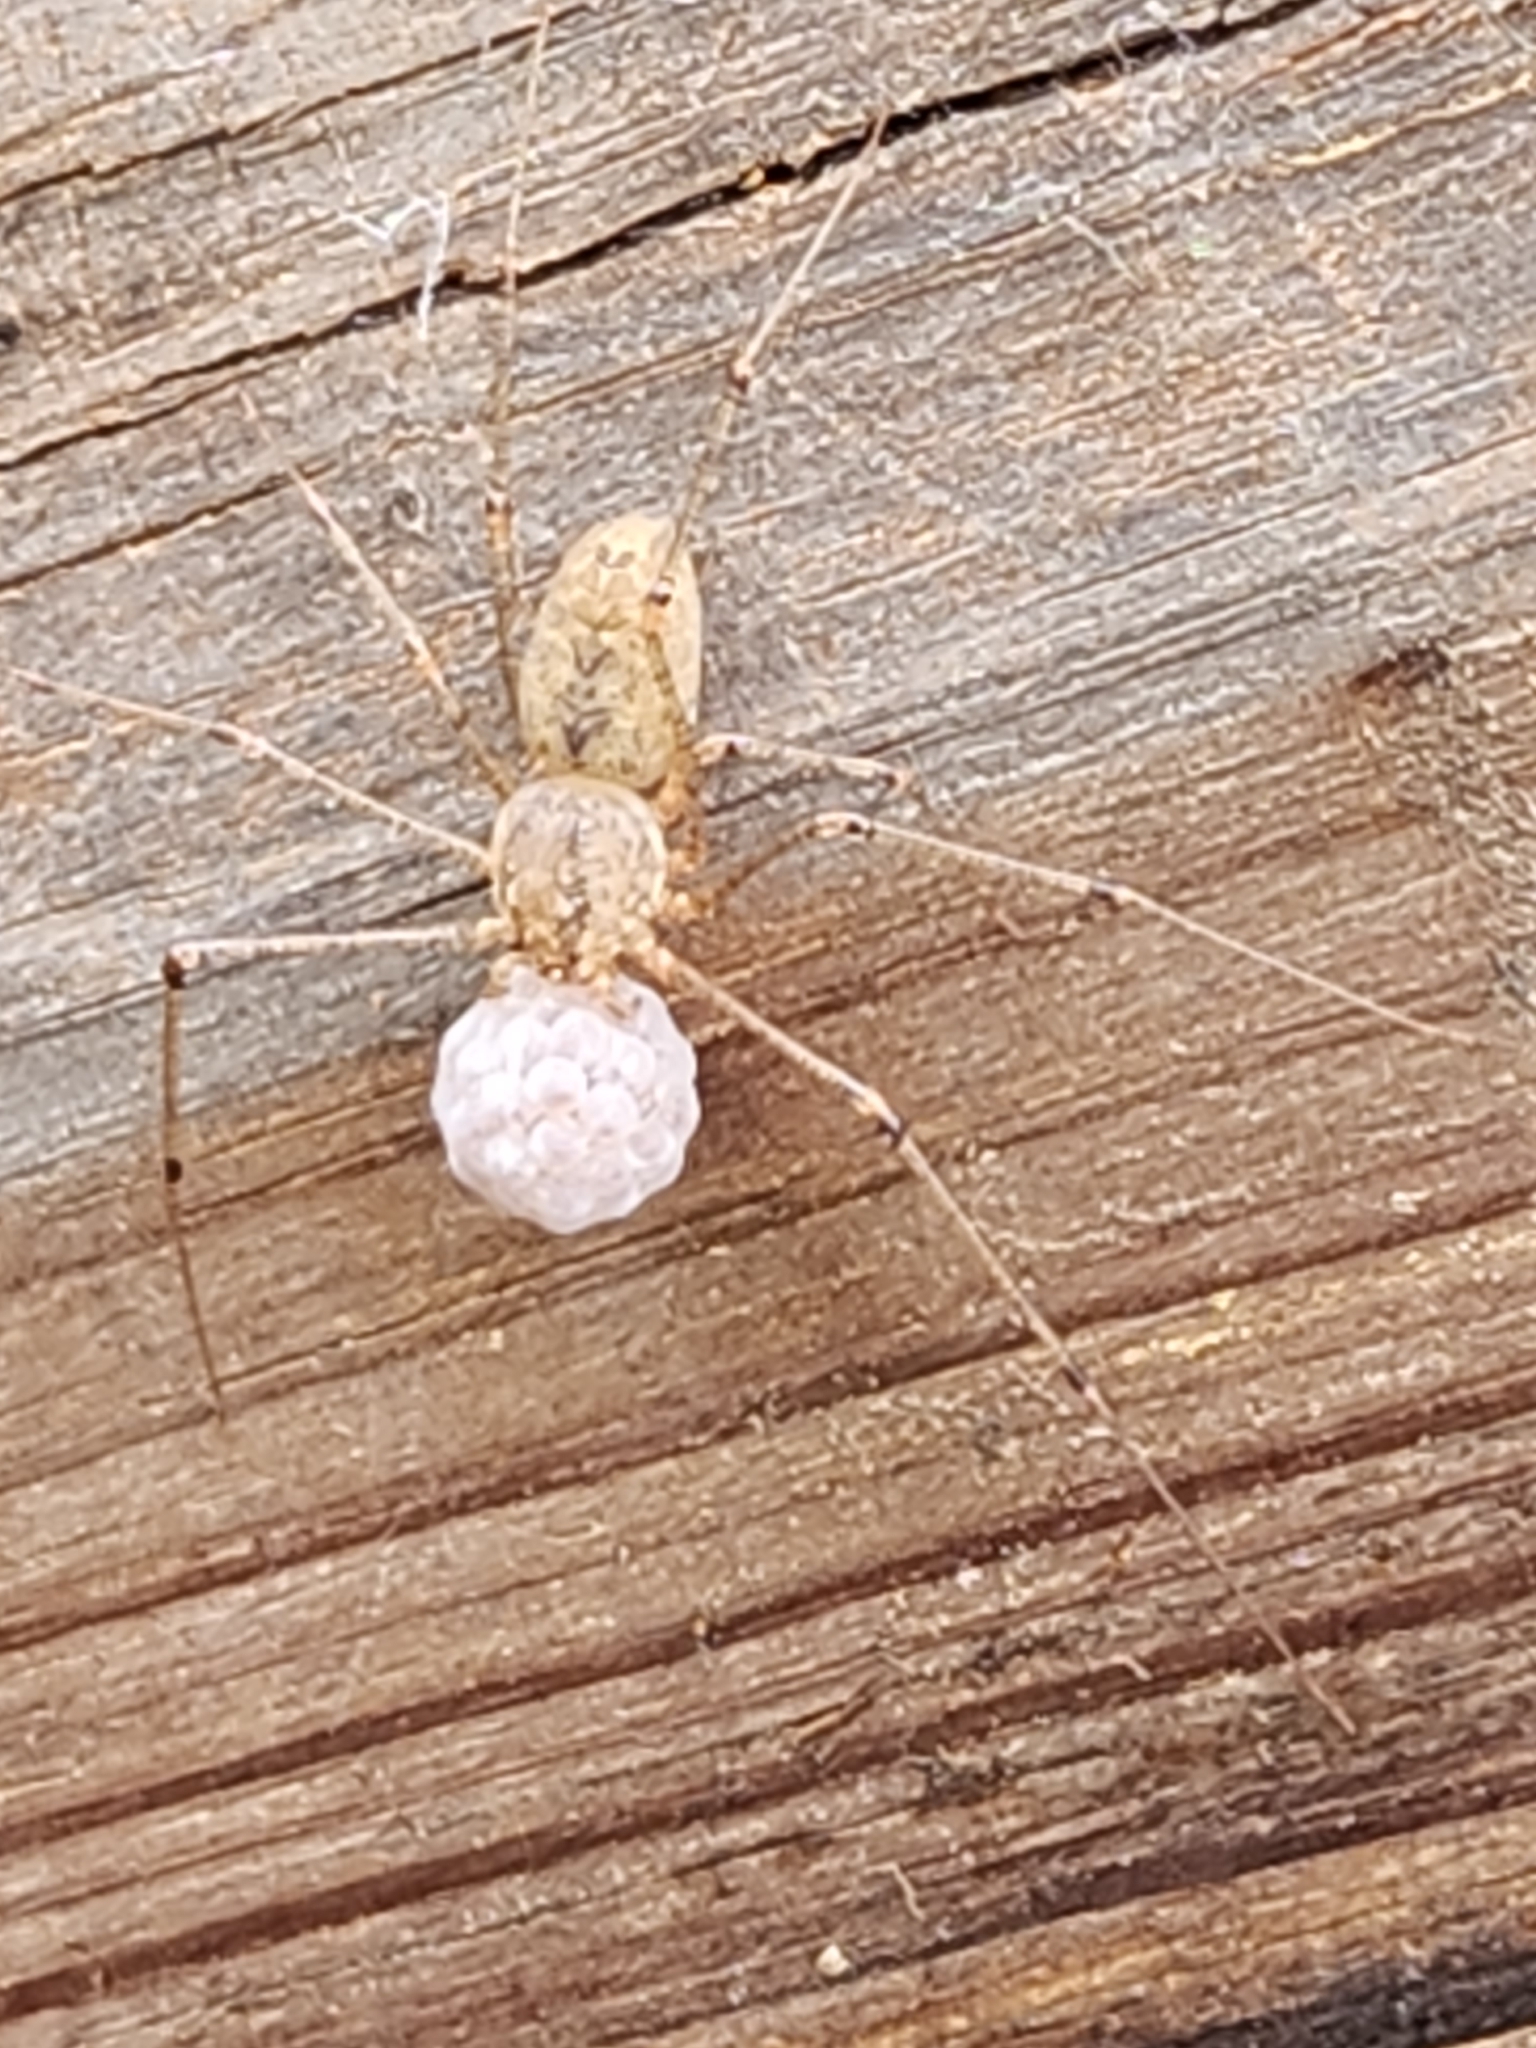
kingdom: Animalia
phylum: Arthropoda
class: Arachnida
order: Araneae
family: Scytodidae
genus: Scytodes
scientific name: Scytodes atlacoya
